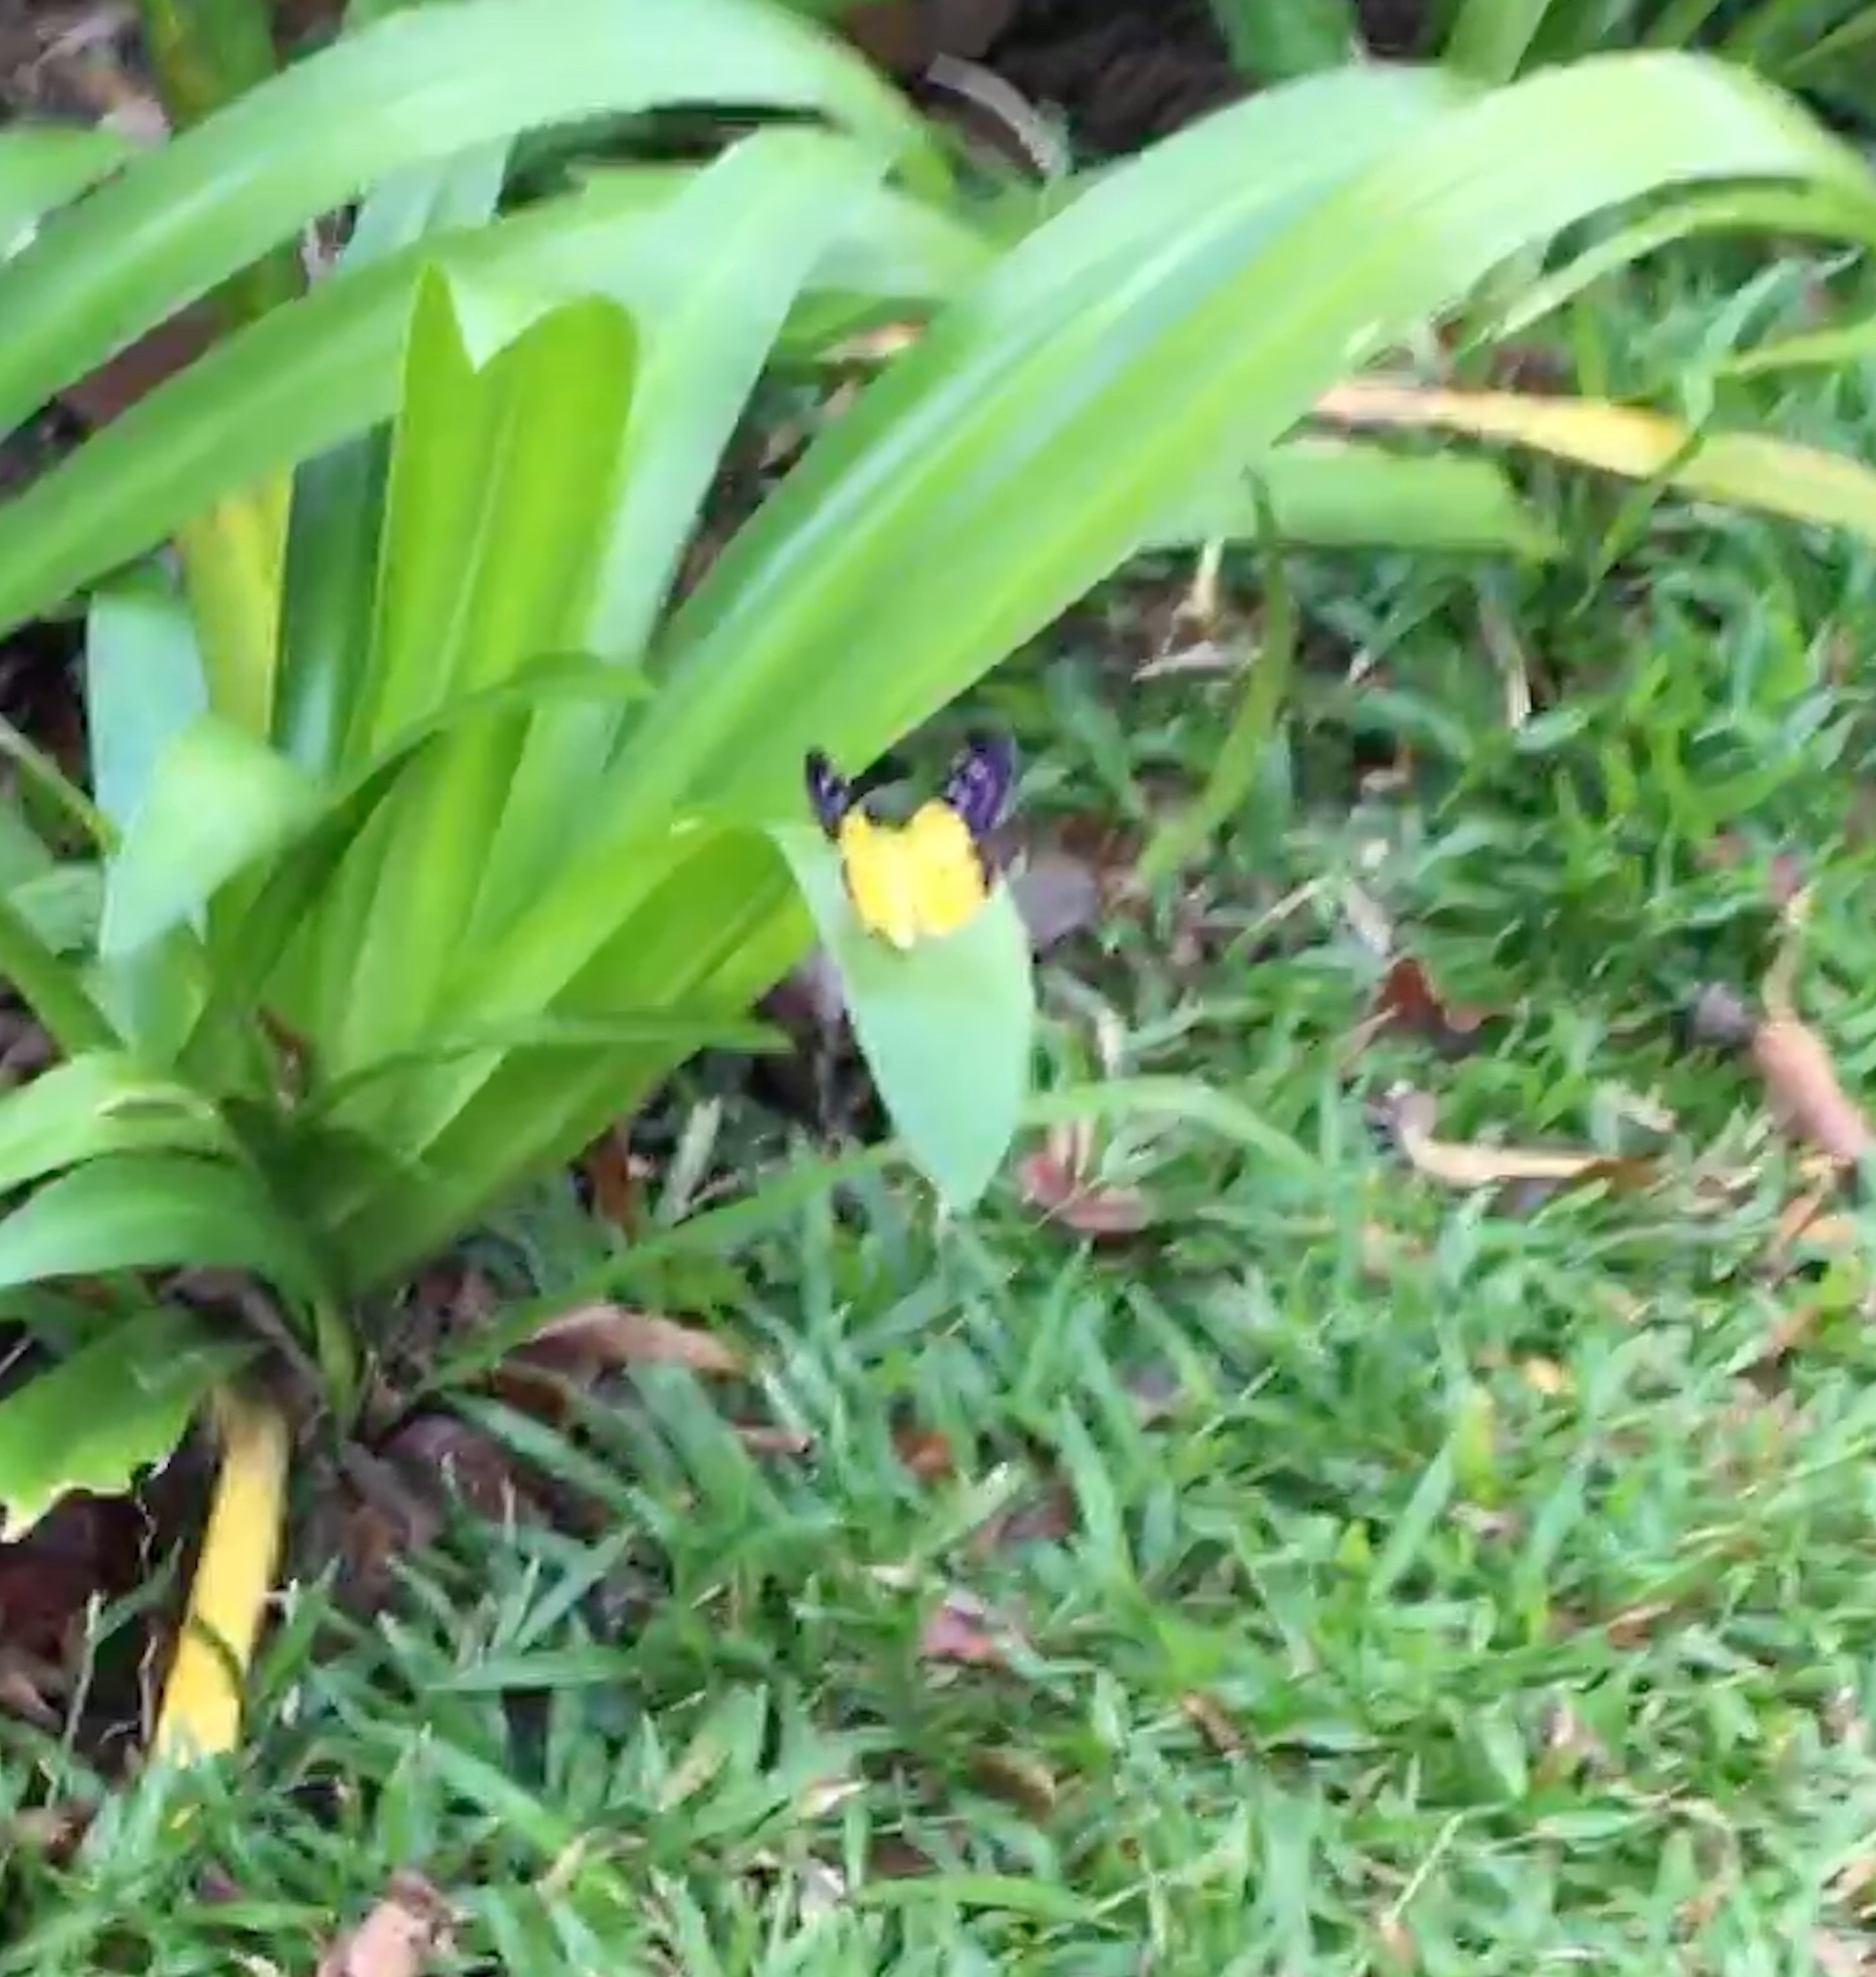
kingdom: Animalia
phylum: Arthropoda
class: Insecta
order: Lepidoptera
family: Geometridae
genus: Dysphania
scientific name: Dysphania sagana
